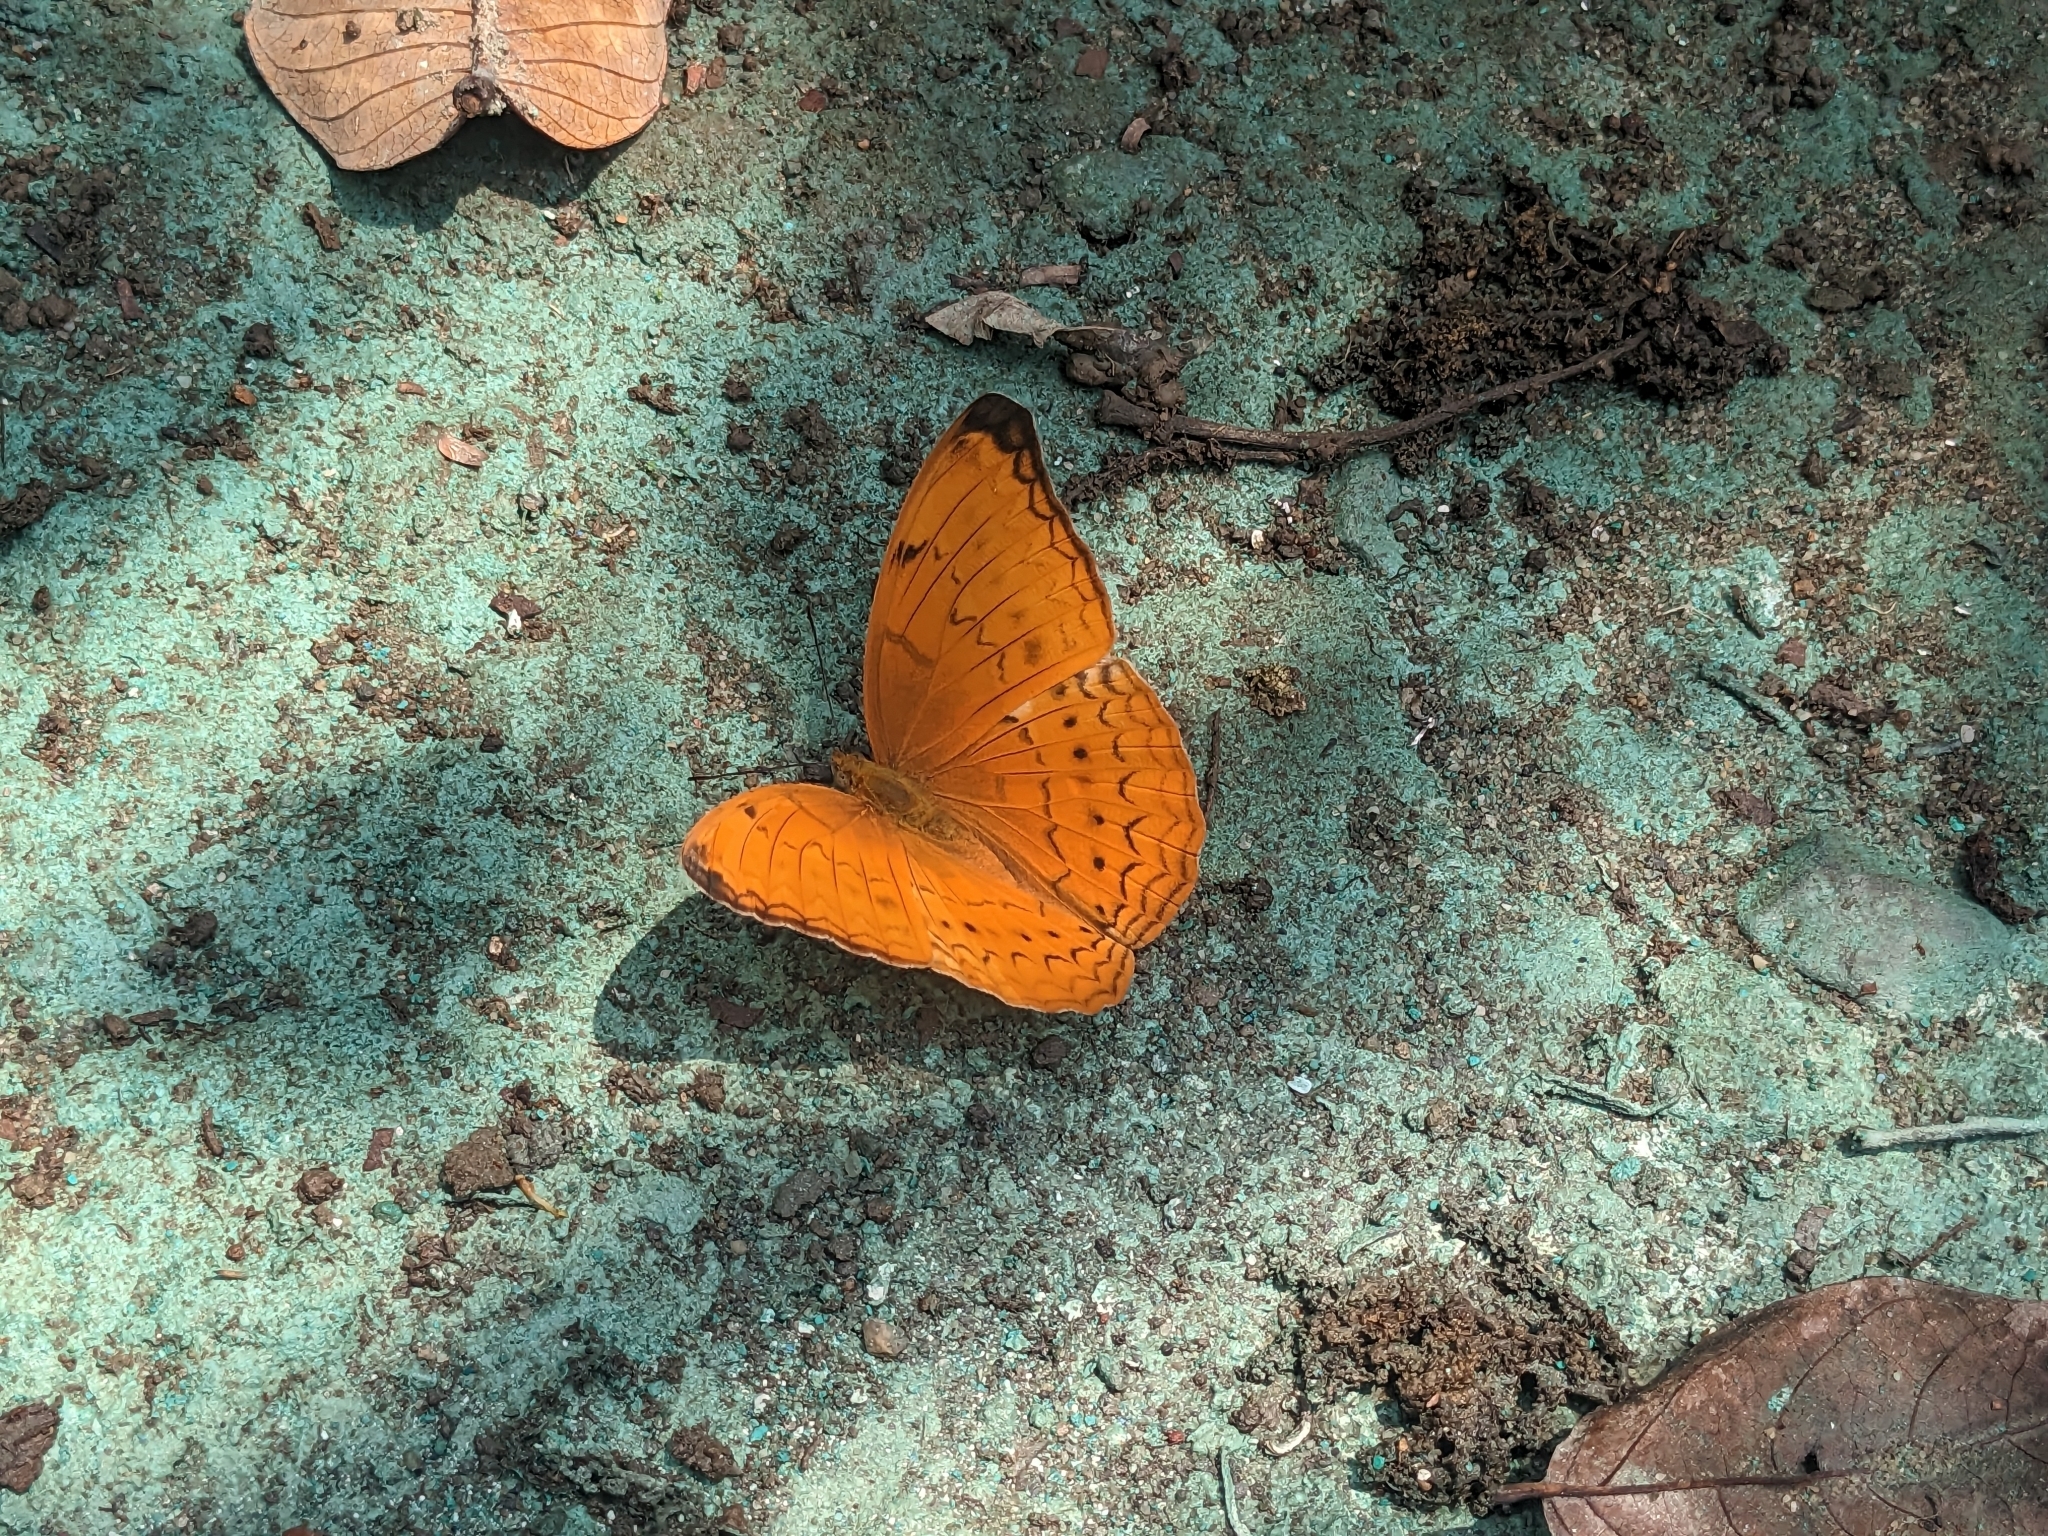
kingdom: Animalia
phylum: Arthropoda
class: Insecta
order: Lepidoptera
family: Nymphalidae
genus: Cirrochroa
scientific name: Cirrochroa aoris
